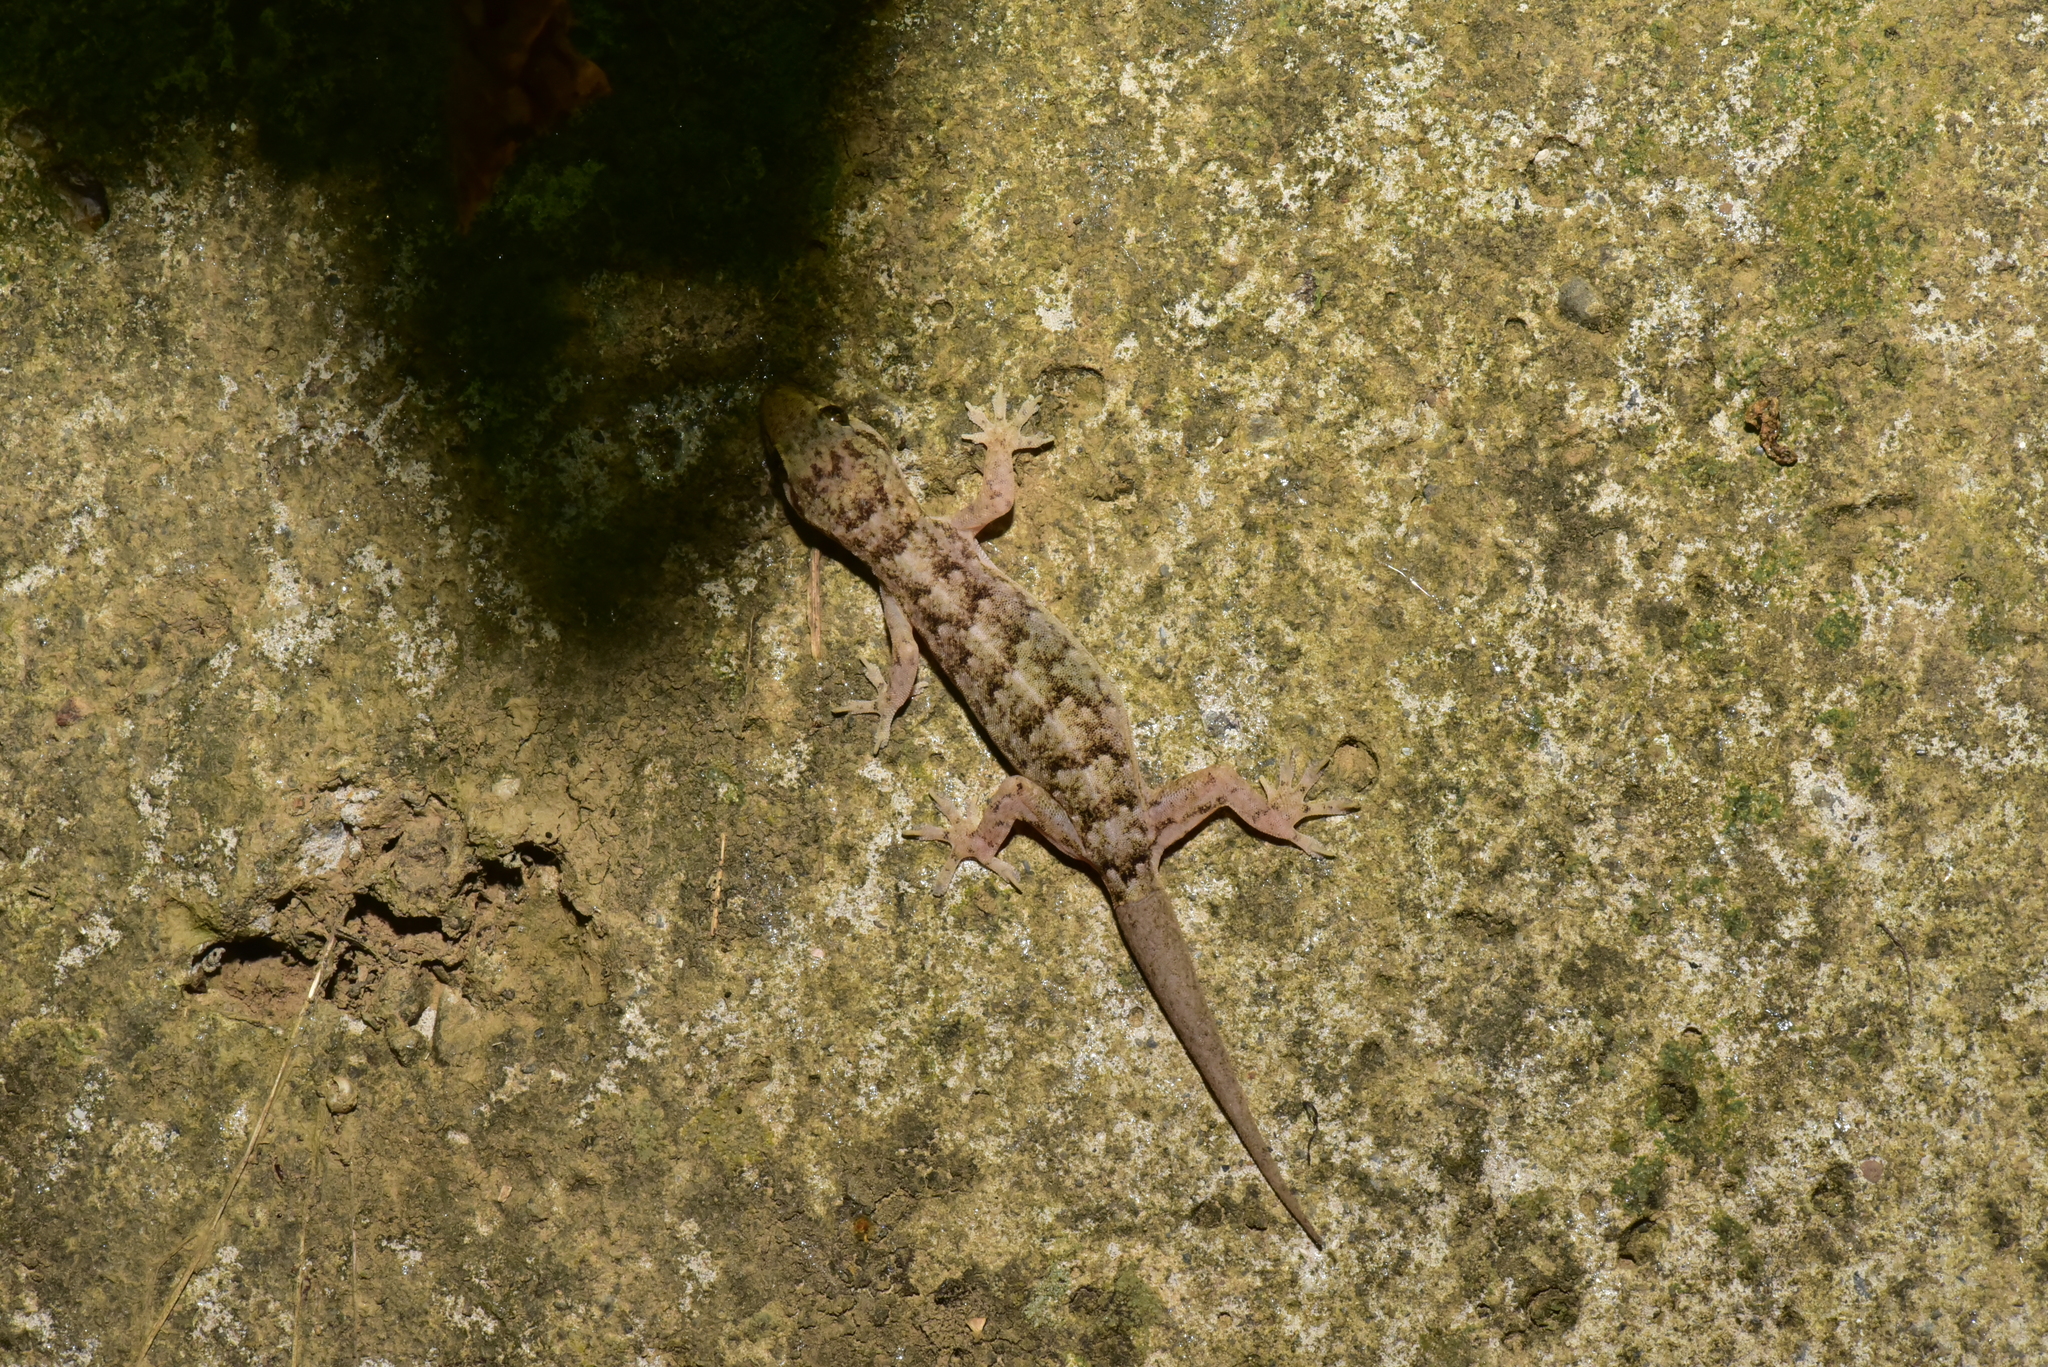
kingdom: Animalia
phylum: Chordata
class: Squamata
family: Gekkonidae
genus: Hemidactylus
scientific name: Hemidactylus bowringii
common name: Oriental leaf-toed gecko
